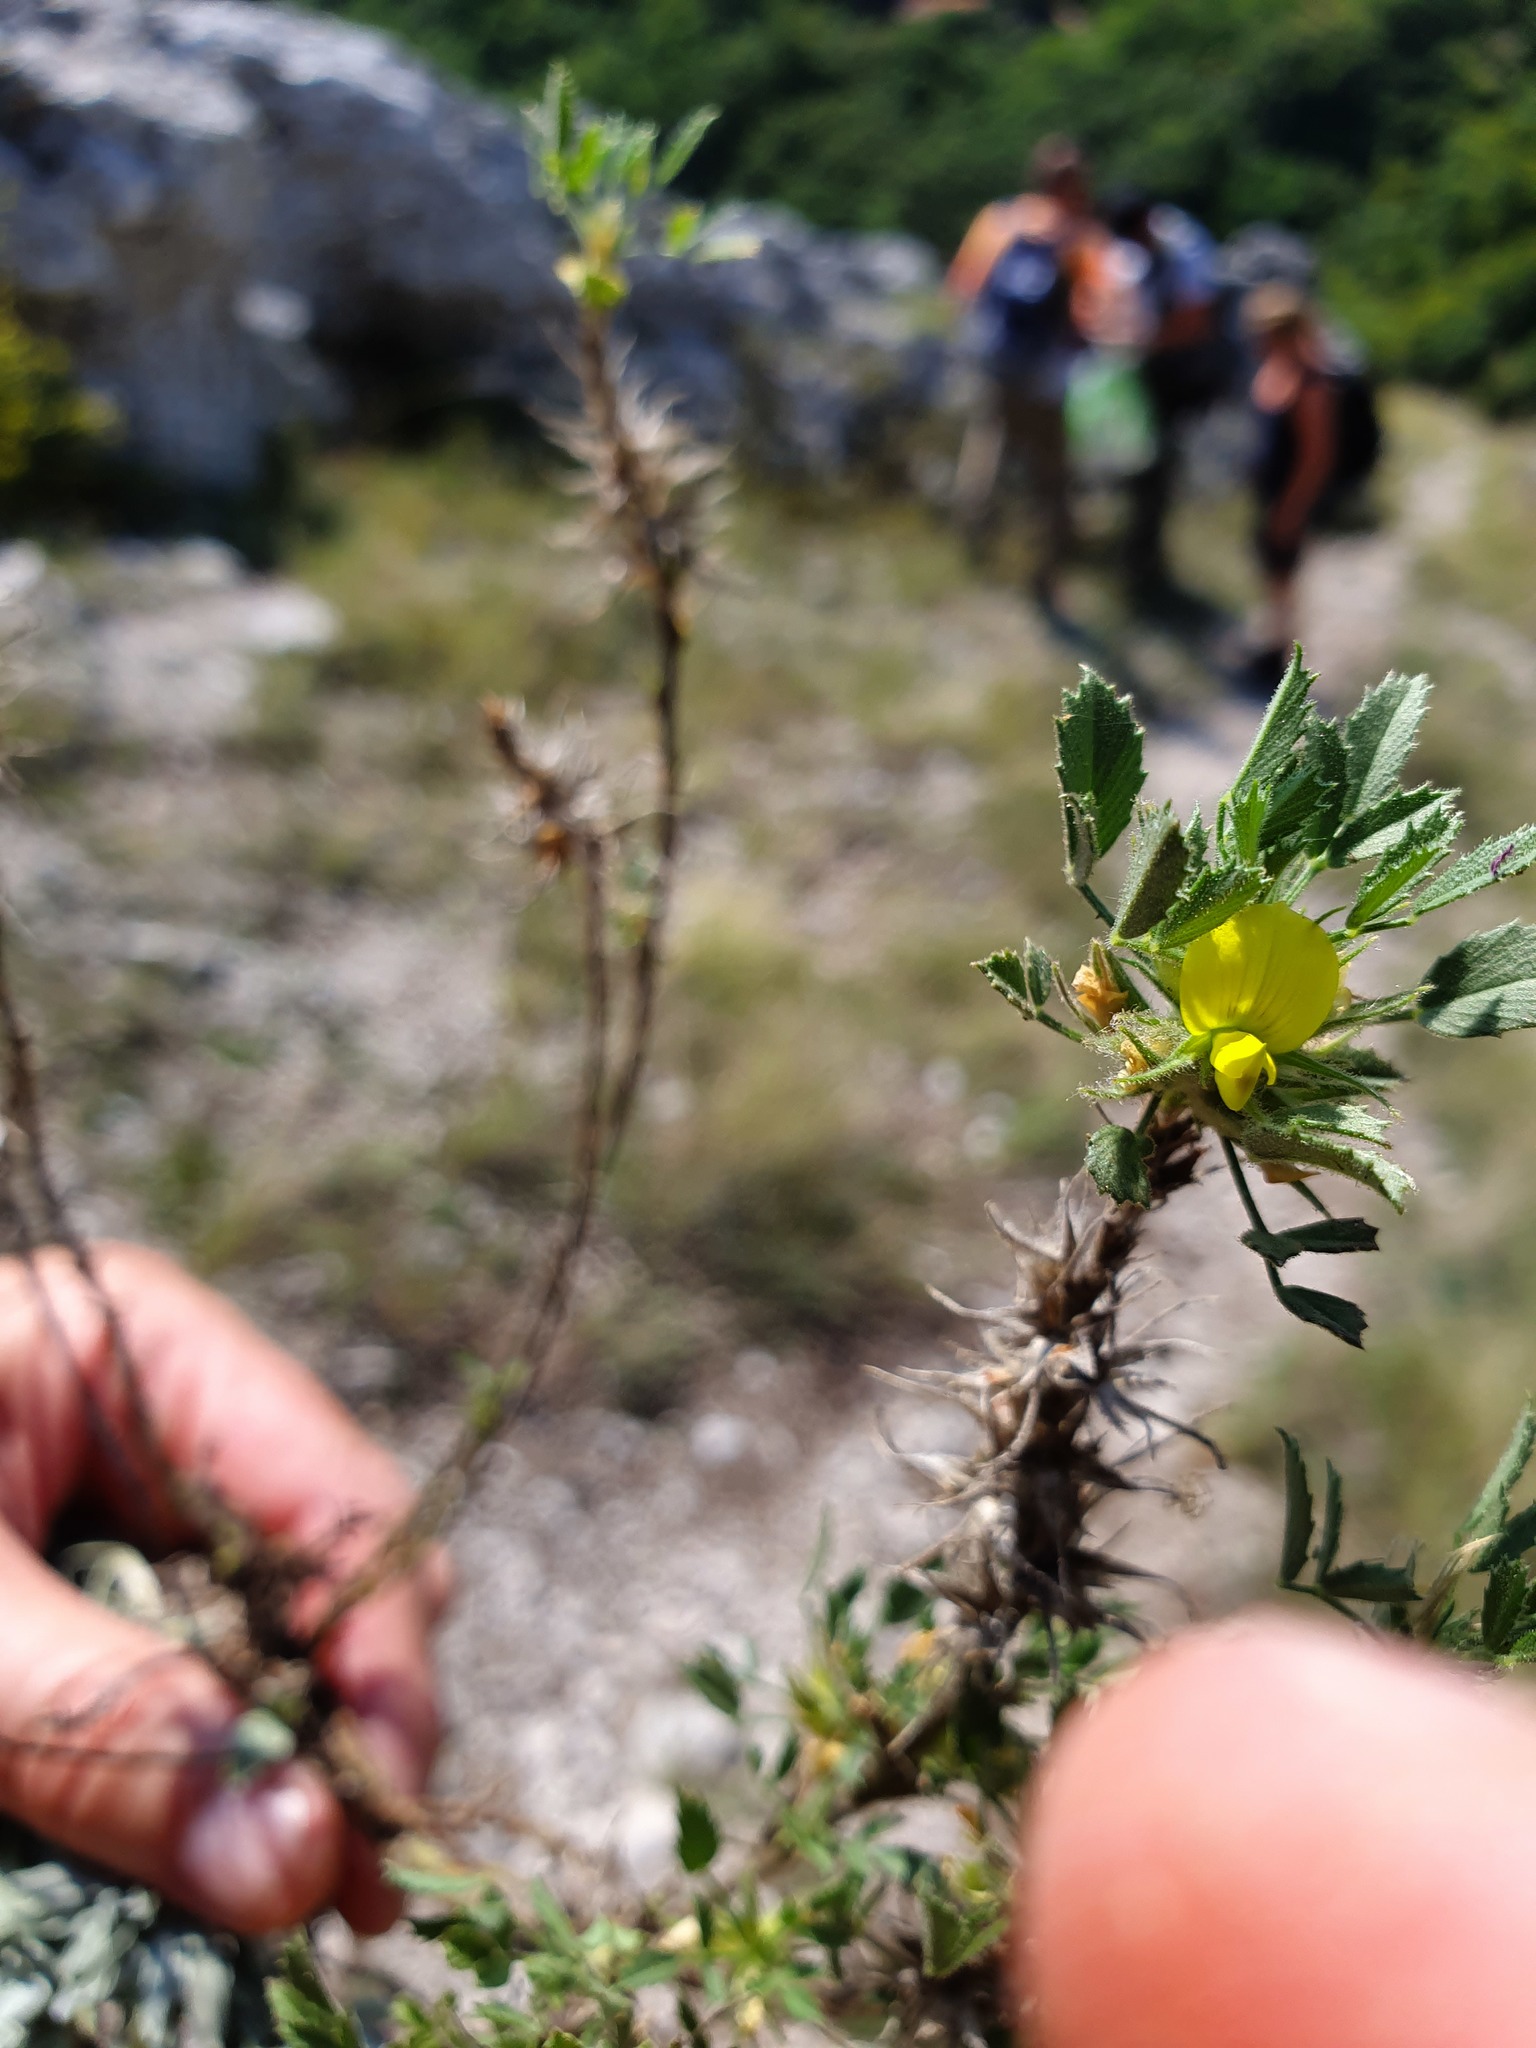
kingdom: Plantae
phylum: Tracheophyta
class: Magnoliopsida
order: Fabales
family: Fabaceae
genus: Ononis
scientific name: Ononis pusilla
